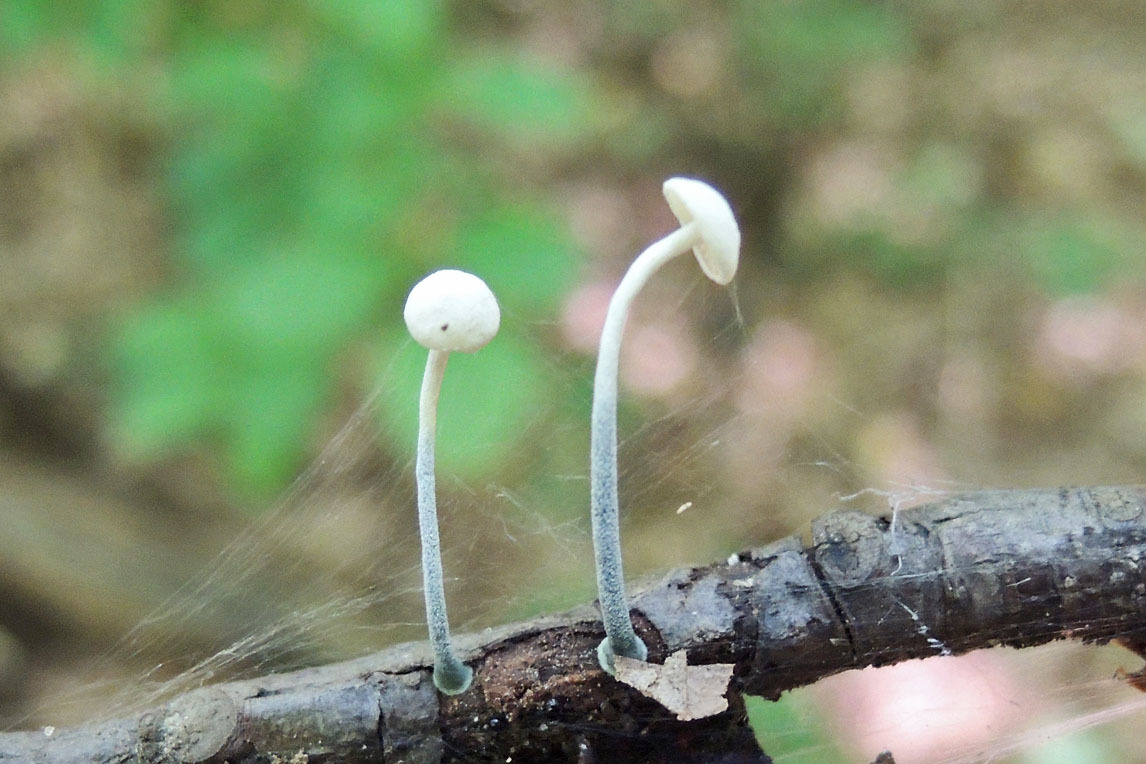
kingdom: Fungi
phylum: Basidiomycota
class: Agaricomycetes
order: Agaricales
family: Marasmiaceae
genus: Tetrapyrgos
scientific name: Tetrapyrgos nigripes
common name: Black-stalked marasmius
